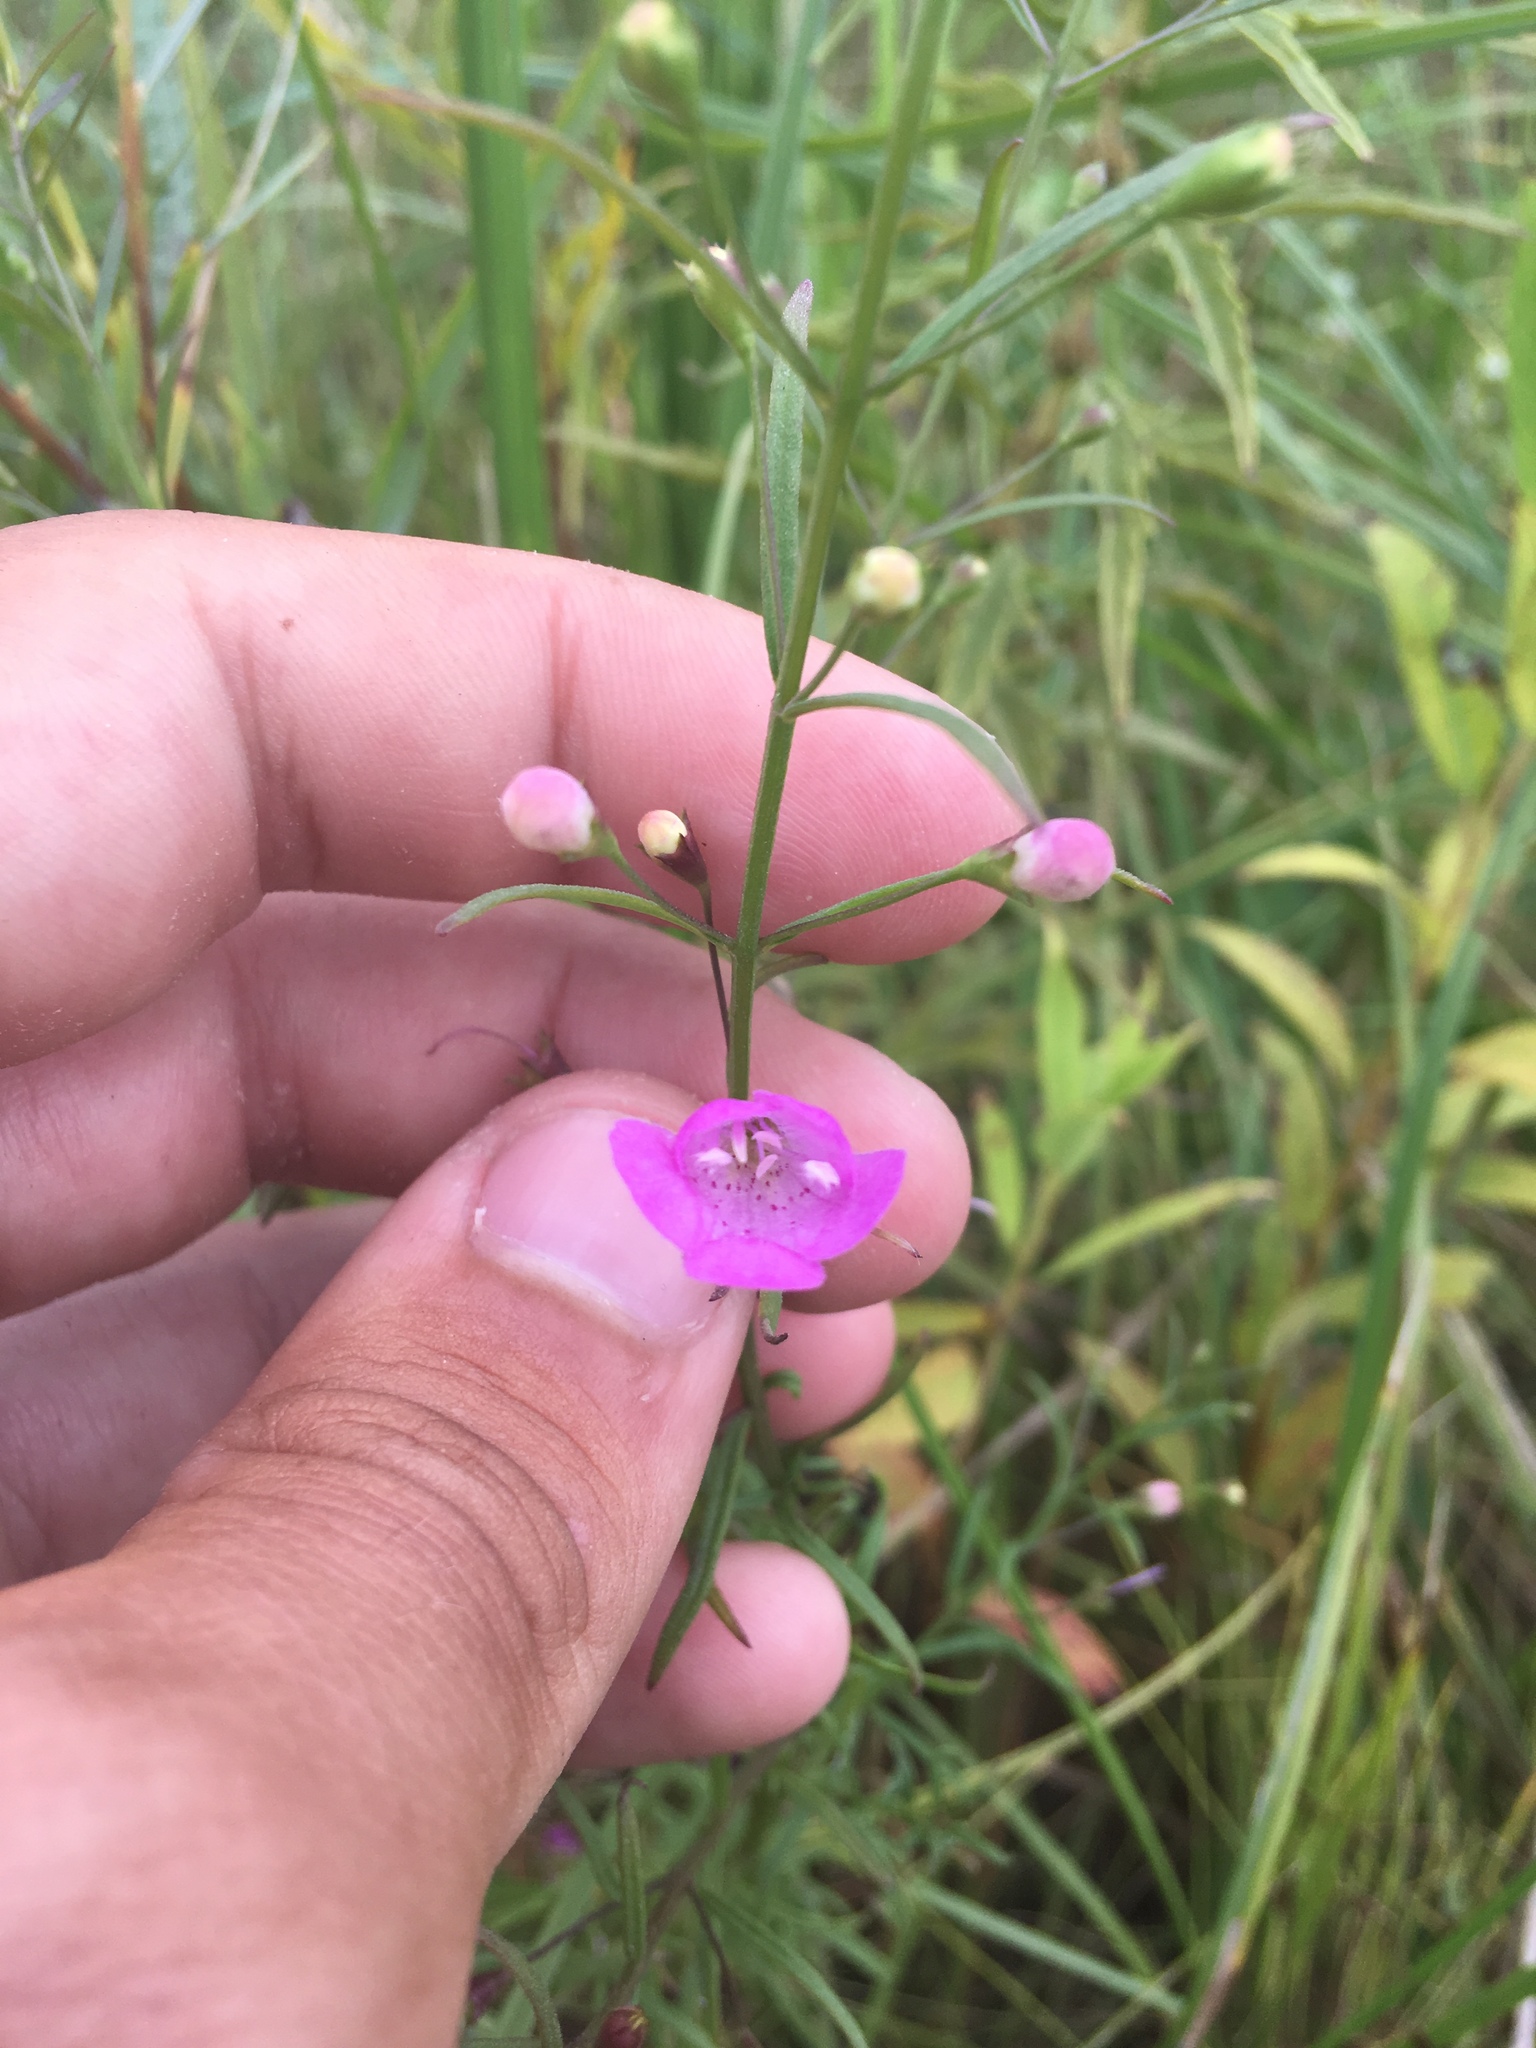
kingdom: Plantae
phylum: Tracheophyta
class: Magnoliopsida
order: Lamiales
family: Orobanchaceae
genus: Agalinis
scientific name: Agalinis tenuifolia
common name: Slender agalinis
